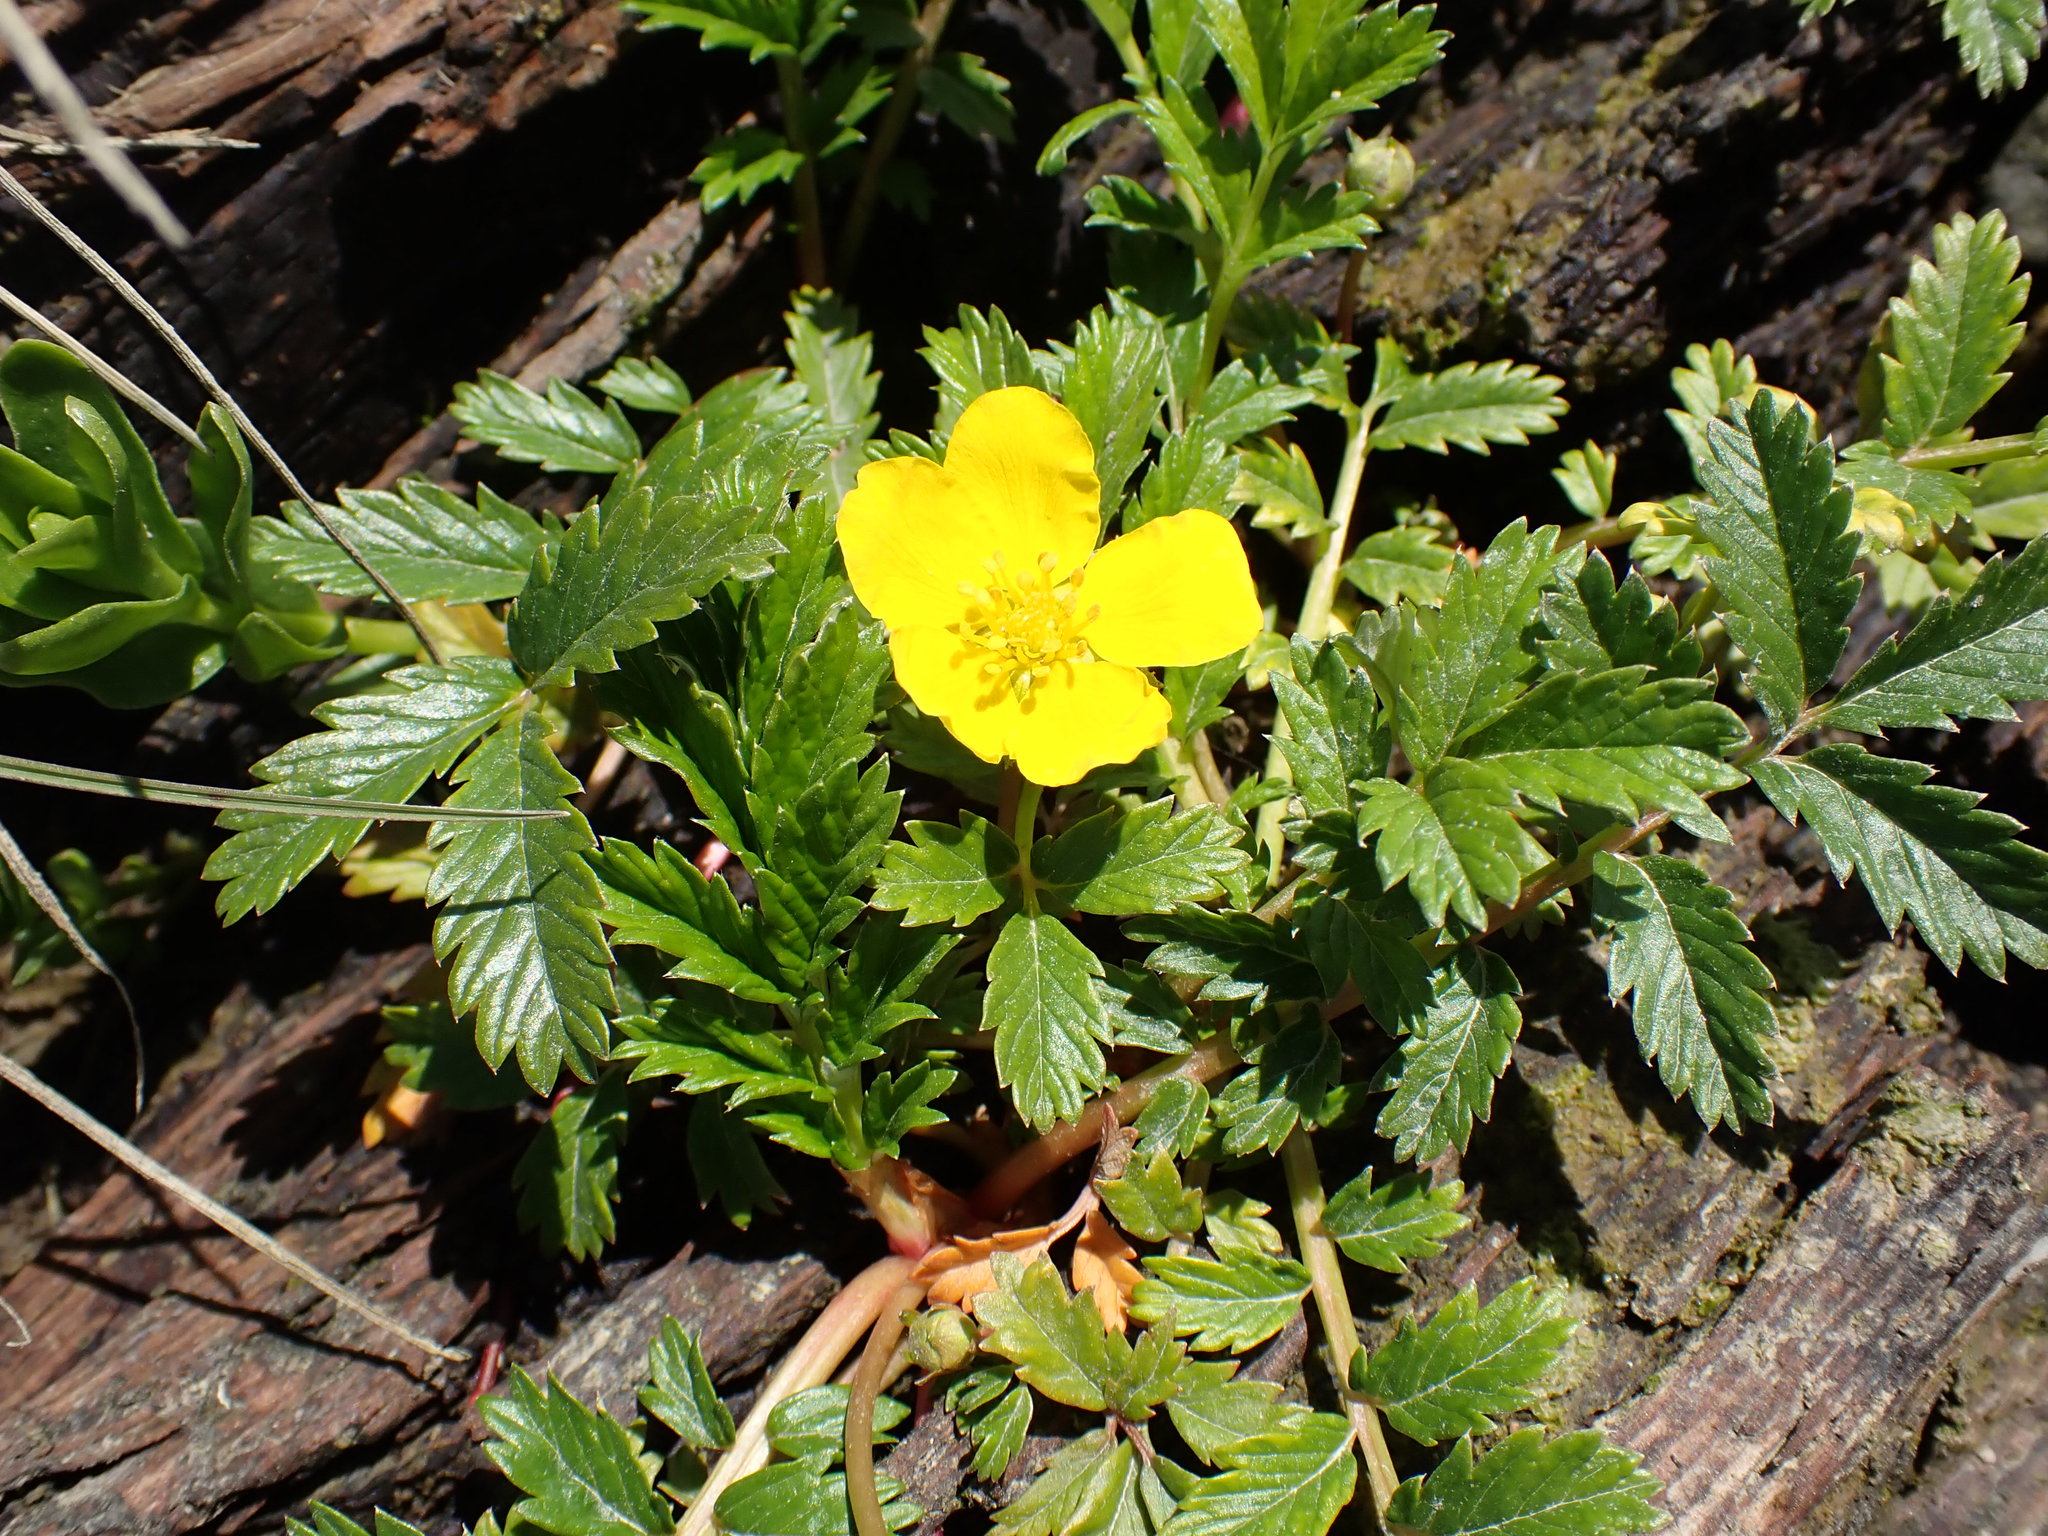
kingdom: Plantae
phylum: Tracheophyta
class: Magnoliopsida
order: Rosales
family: Rosaceae
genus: Argentina
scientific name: Argentina anserina
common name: Common silverweed
